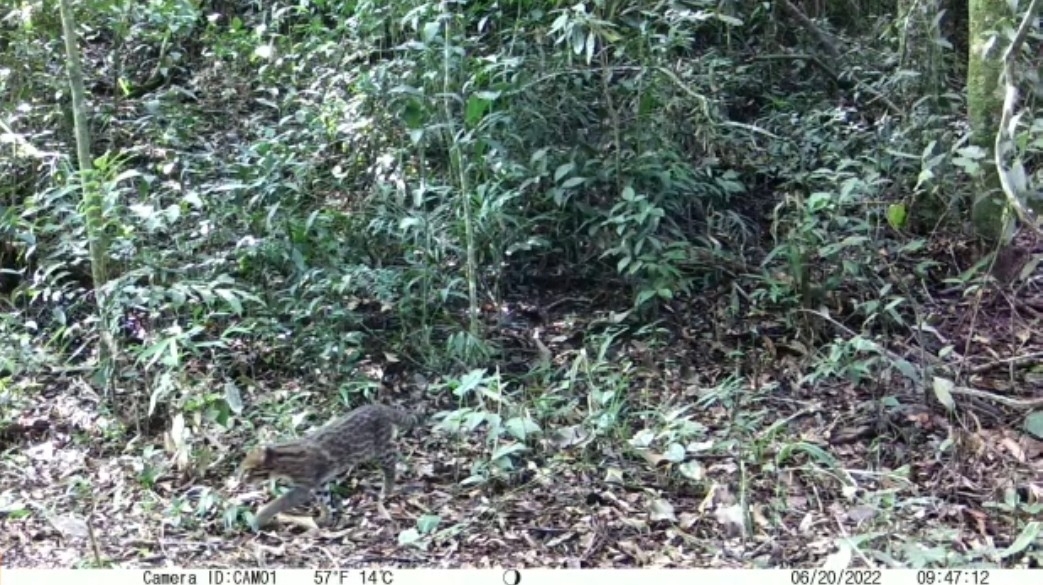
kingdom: Animalia
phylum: Chordata
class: Mammalia
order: Carnivora
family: Felidae
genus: Leopardus
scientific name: Leopardus pardalis
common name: Ocelot
